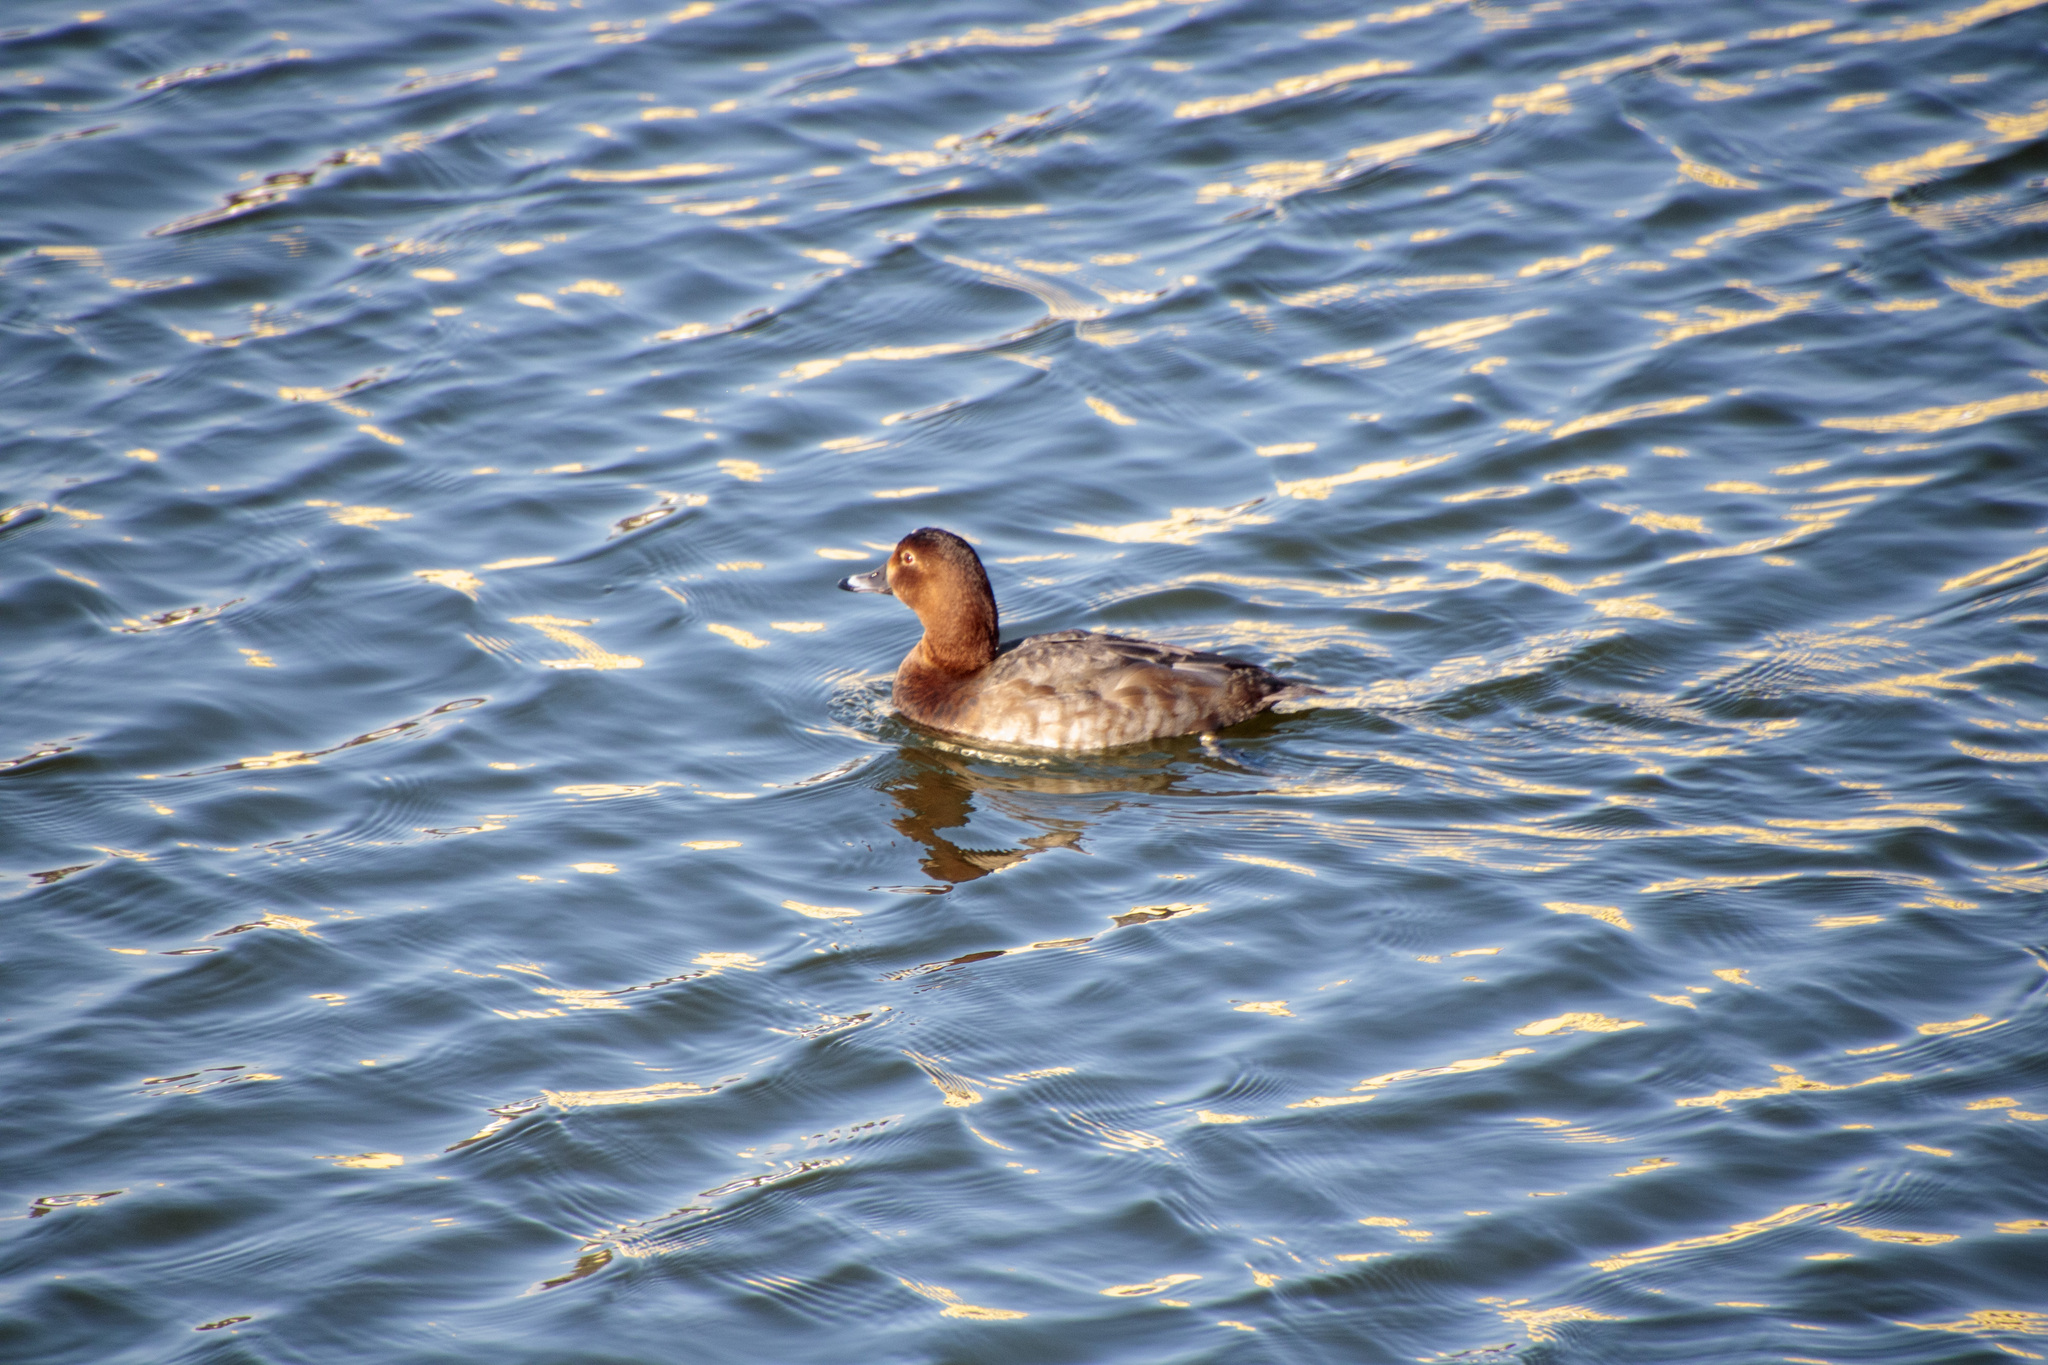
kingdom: Animalia
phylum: Chordata
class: Aves
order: Anseriformes
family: Anatidae
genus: Aythya
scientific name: Aythya ferina
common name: Common pochard
